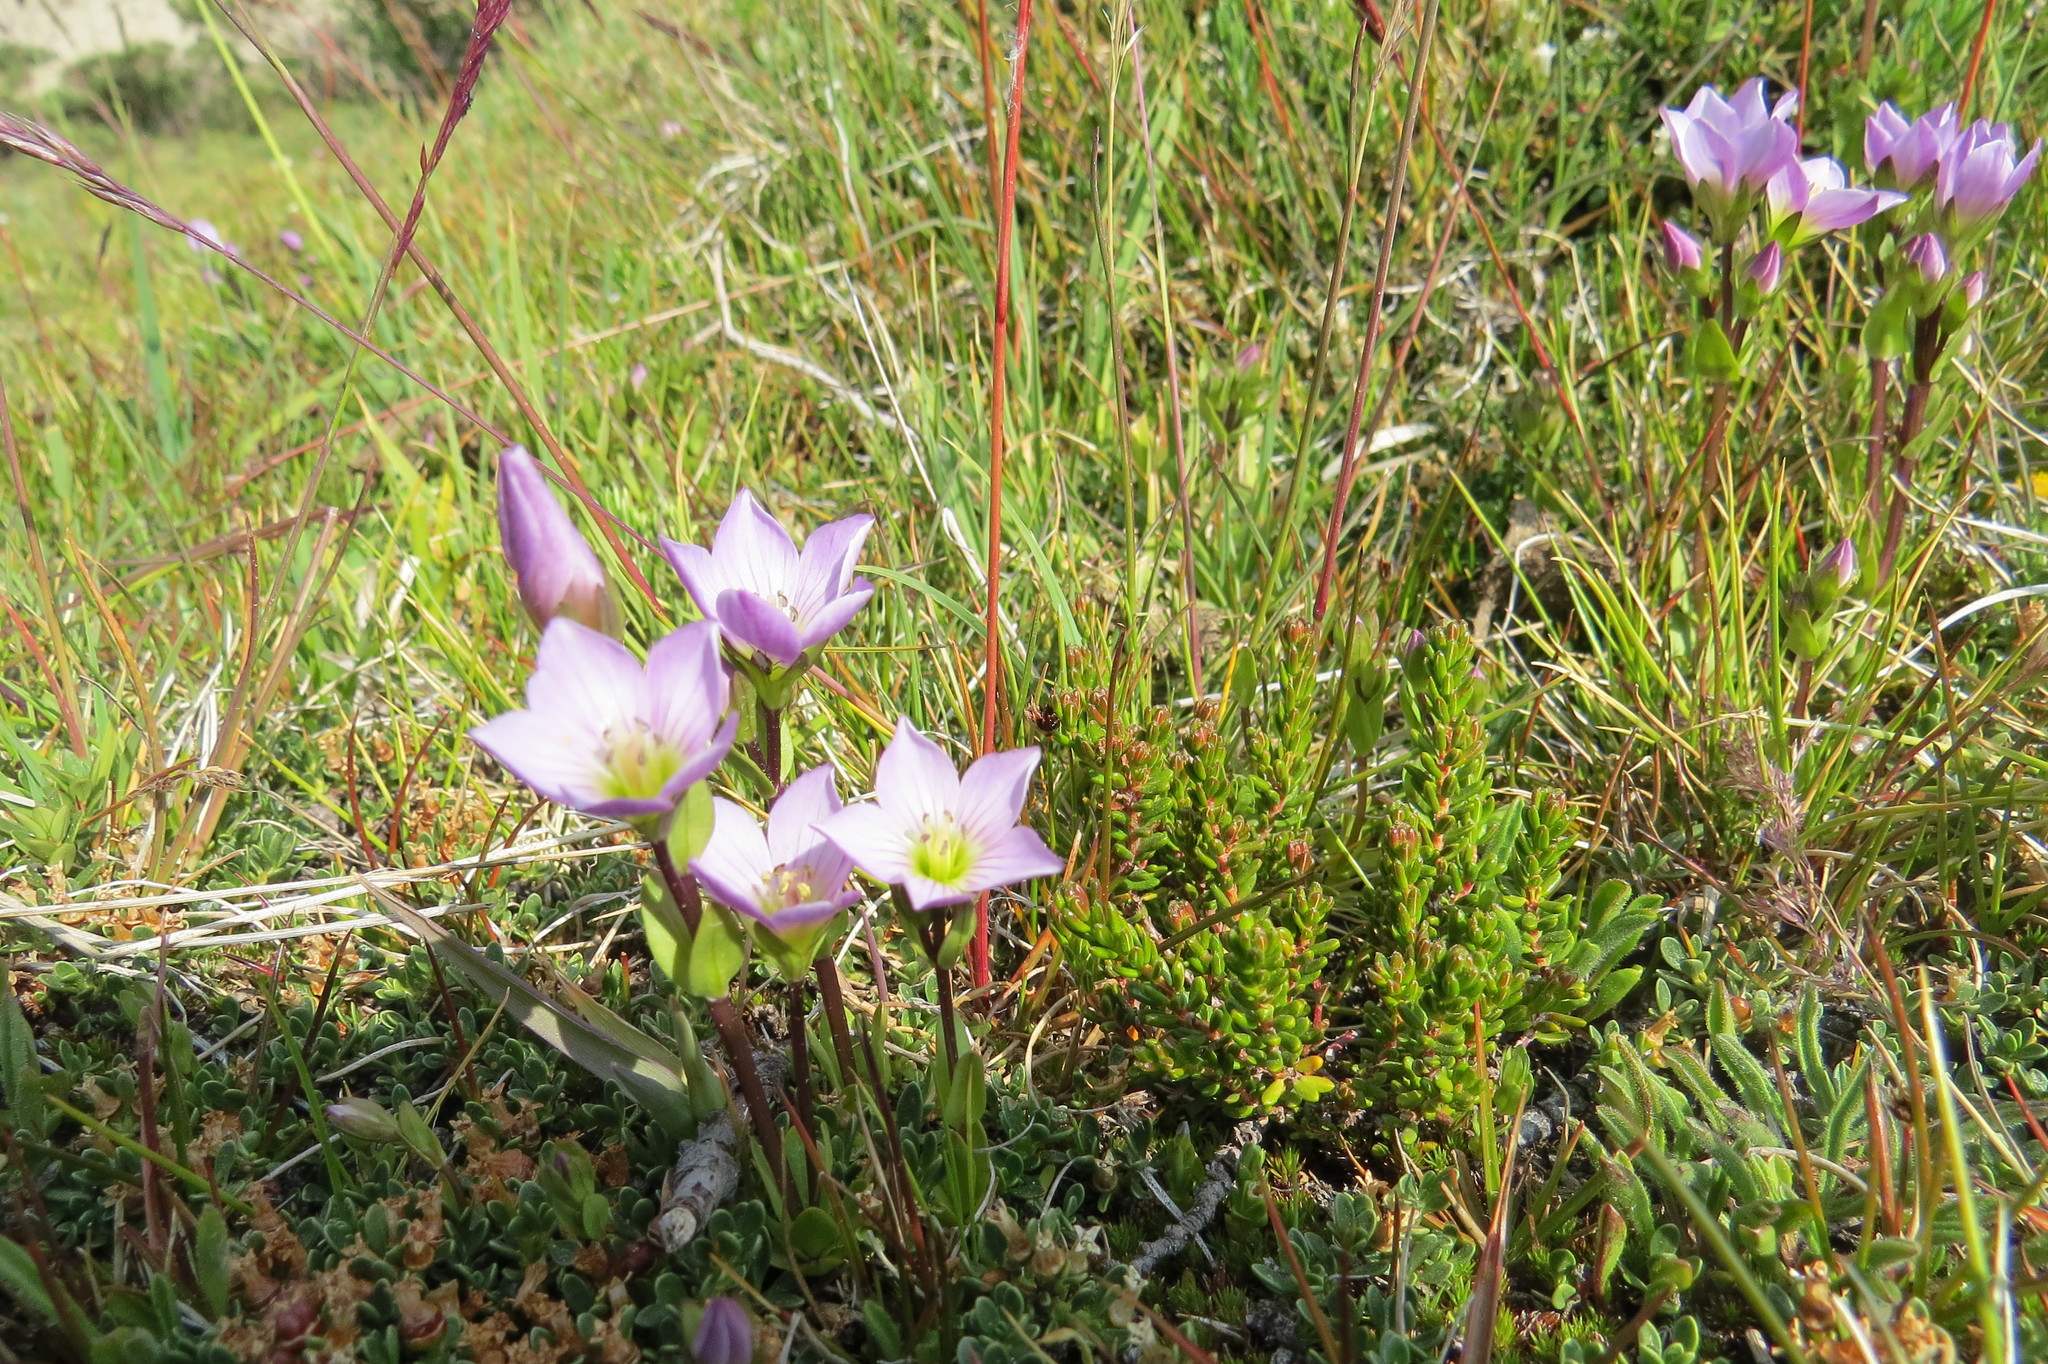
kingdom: Plantae
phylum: Tracheophyta
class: Magnoliopsida
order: Gentianales
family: Gentianaceae
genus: Gentianella
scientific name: Gentianella magellanica
